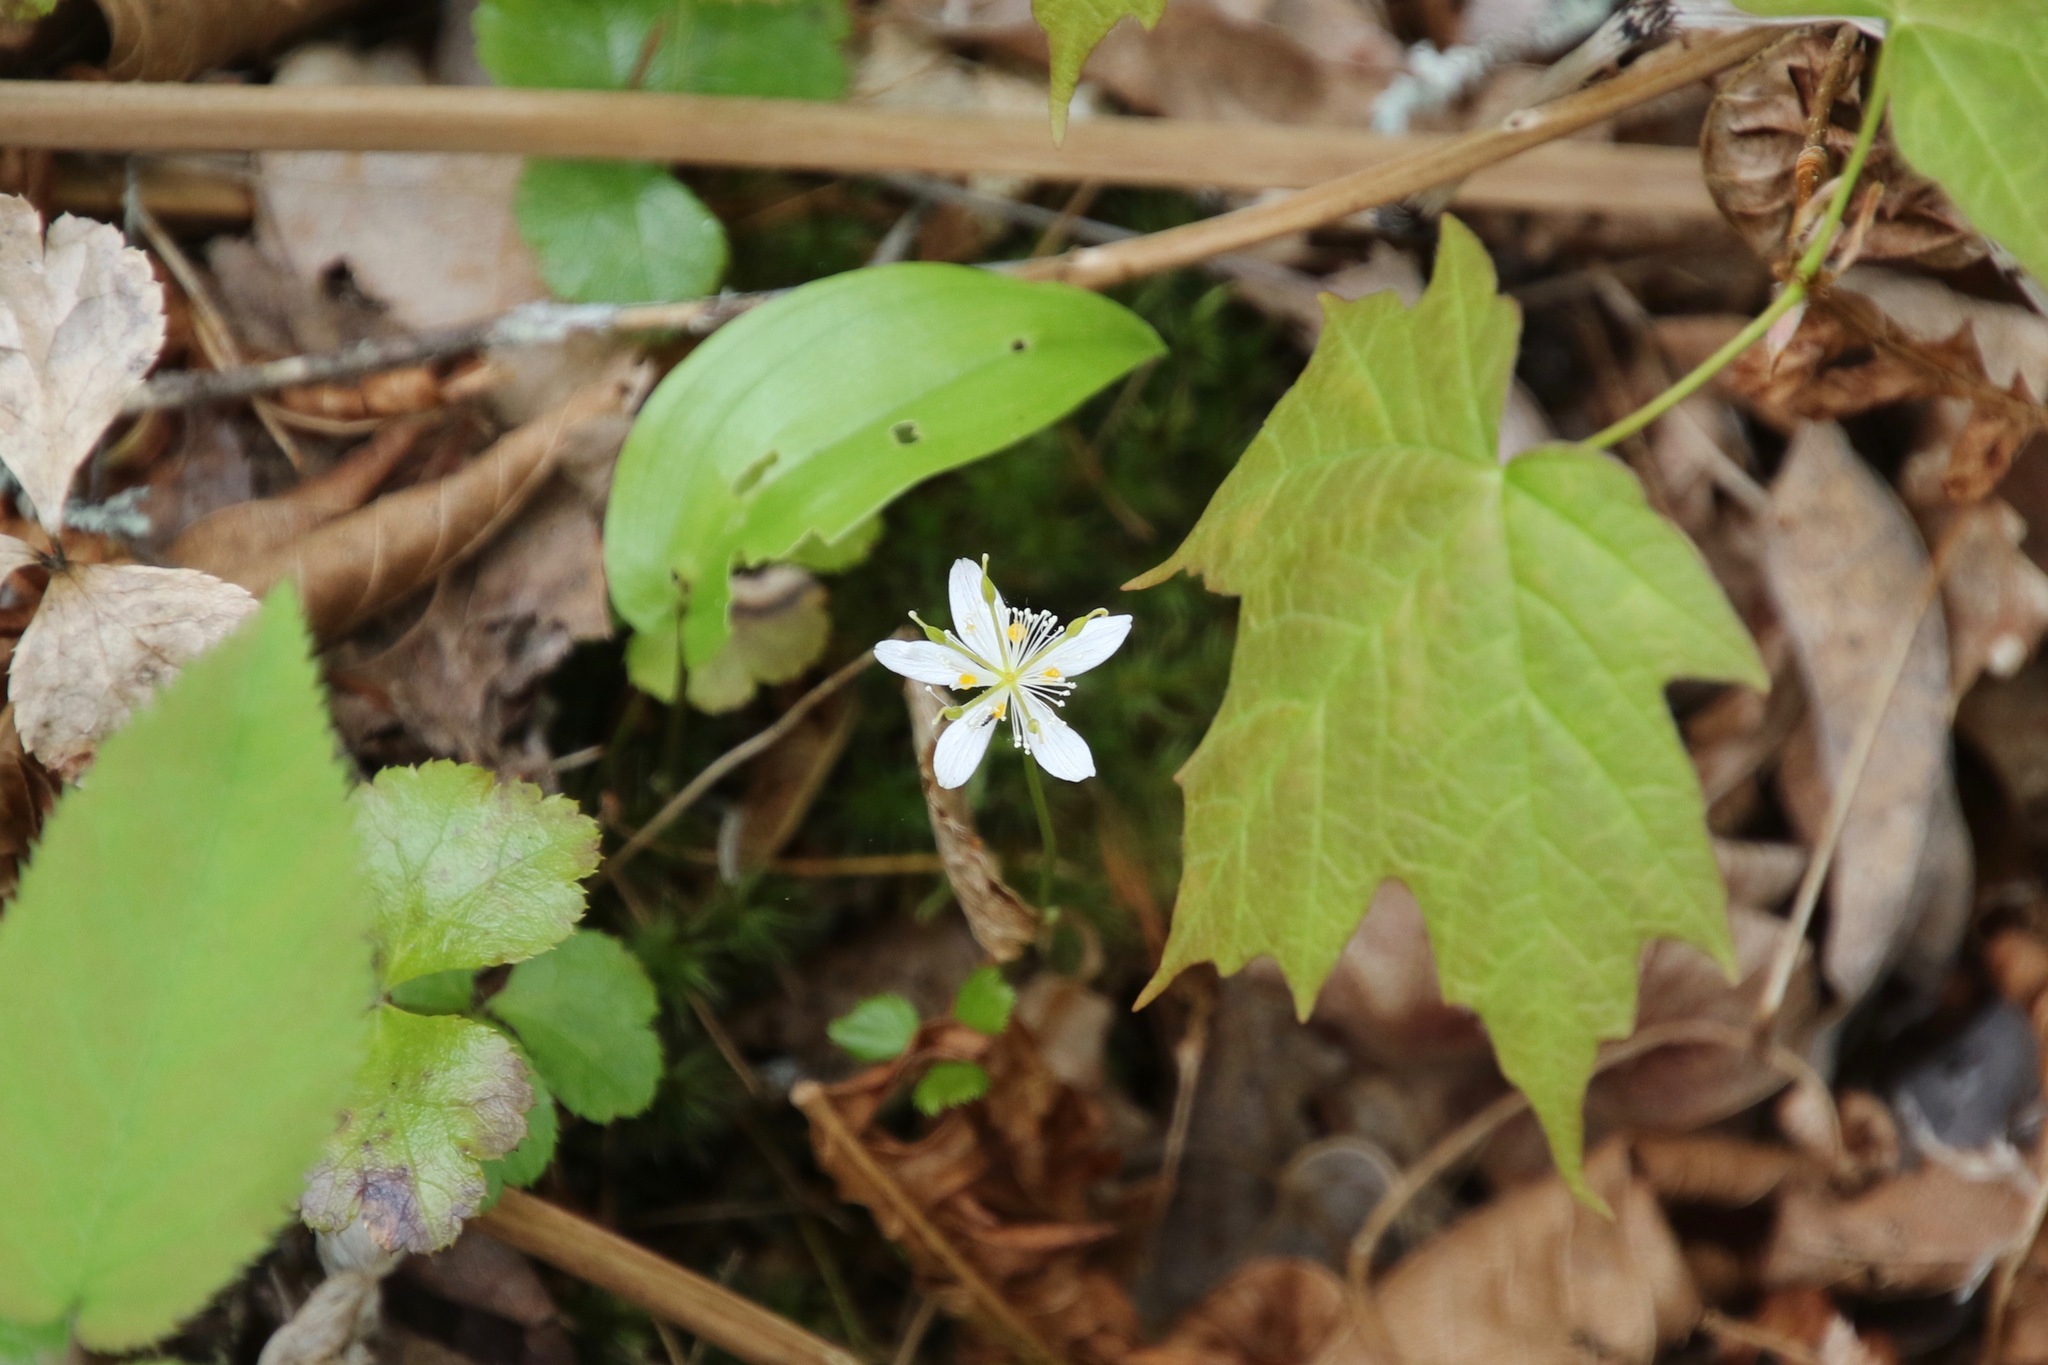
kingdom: Plantae
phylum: Tracheophyta
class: Magnoliopsida
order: Ranunculales
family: Ranunculaceae
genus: Coptis
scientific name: Coptis trifolia
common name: Canker-root
